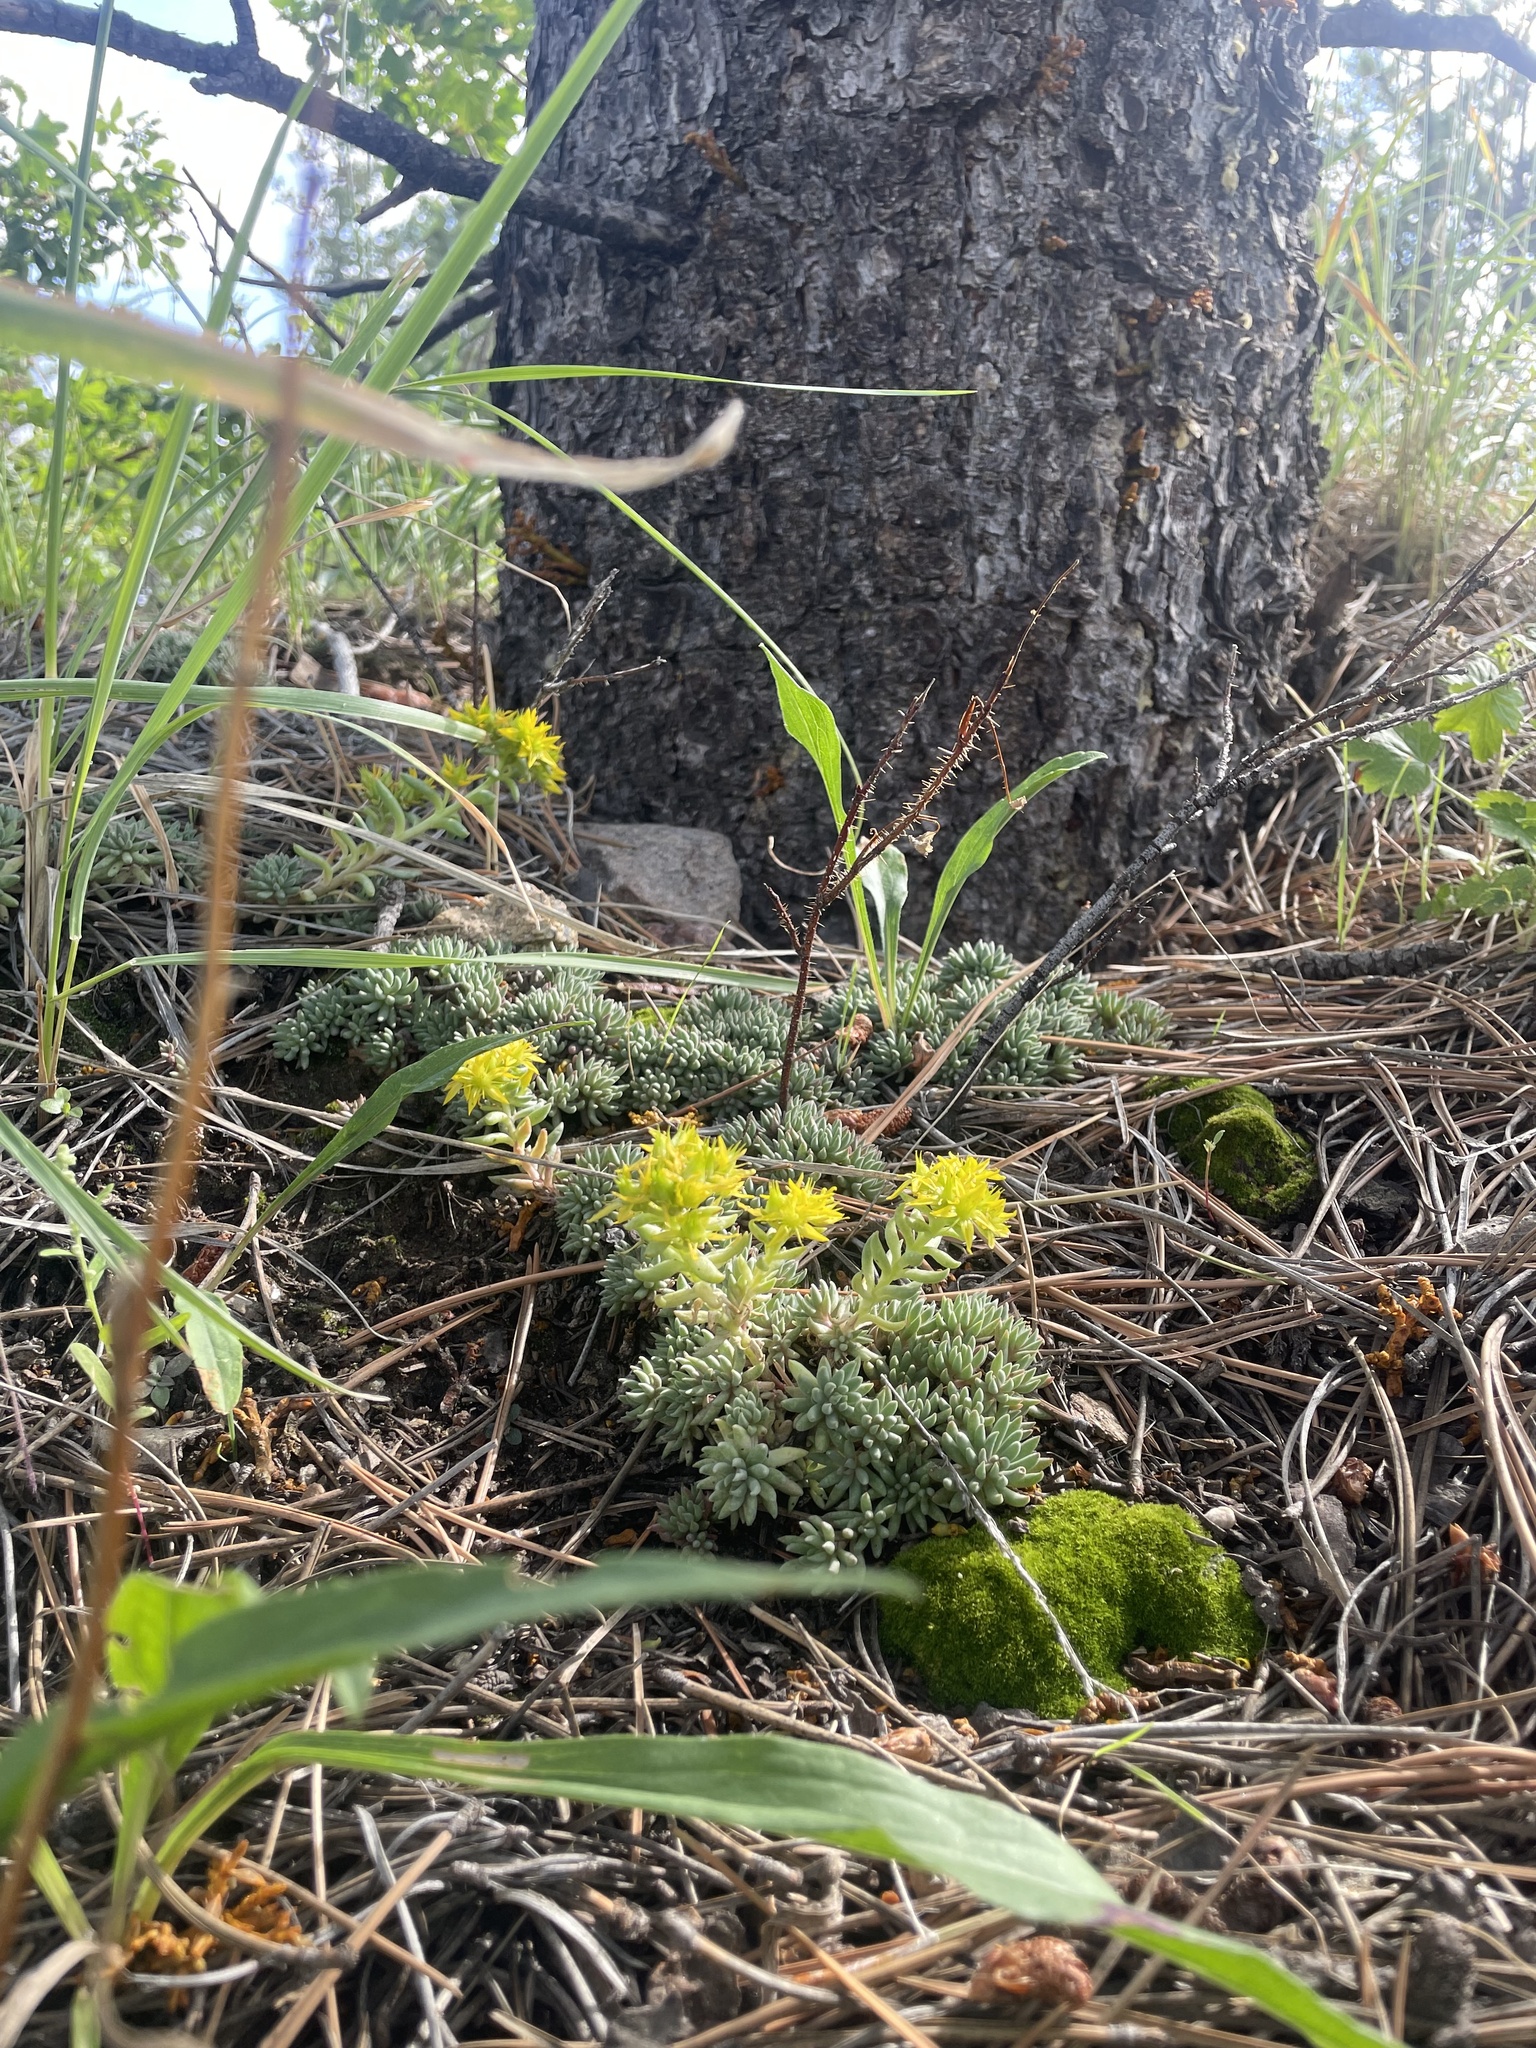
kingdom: Plantae
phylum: Tracheophyta
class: Magnoliopsida
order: Saxifragales
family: Crassulaceae
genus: Sedum
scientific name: Sedum lanceolatum
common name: Common stonecrop
